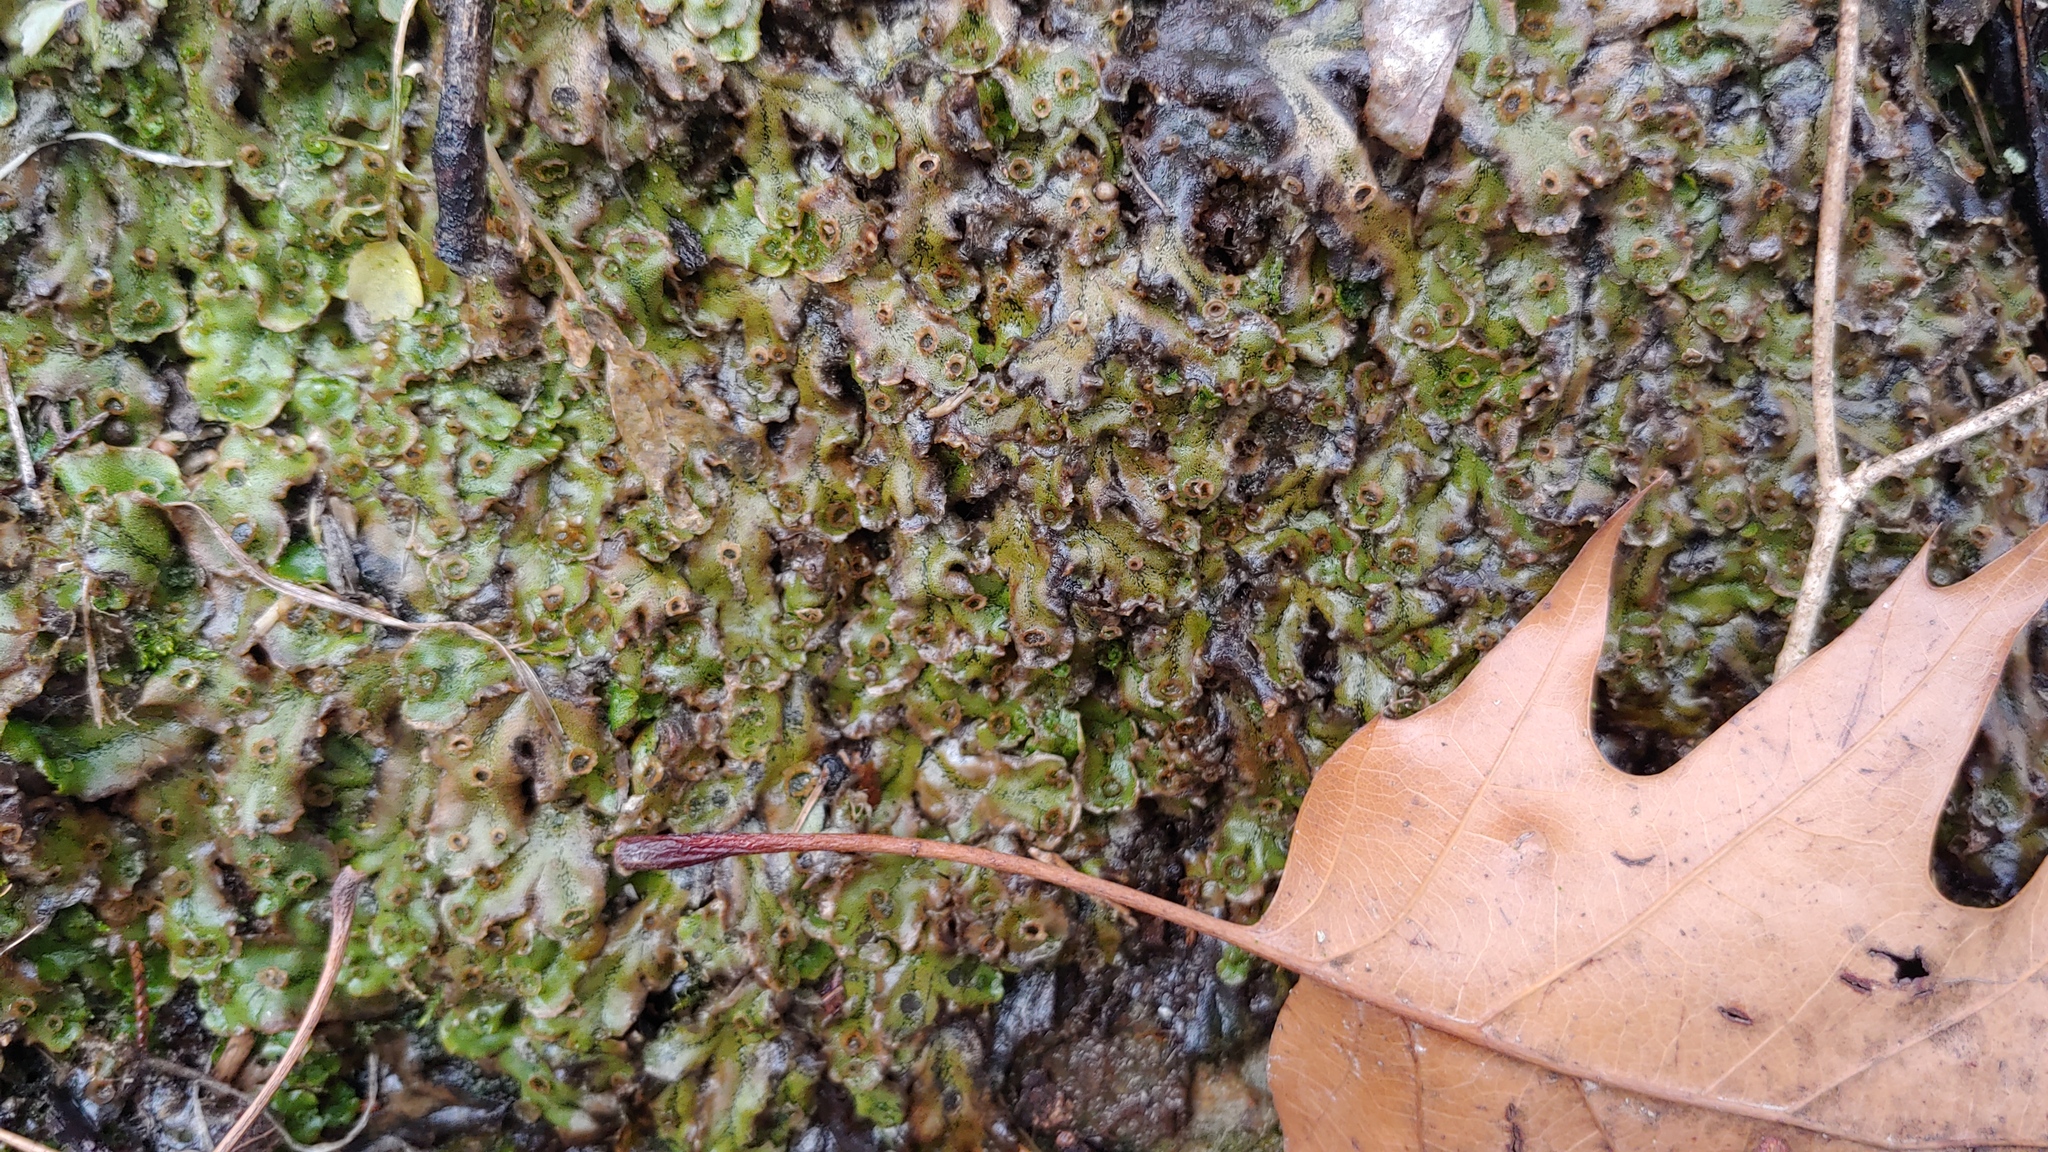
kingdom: Plantae
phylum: Marchantiophyta
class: Marchantiopsida
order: Marchantiales
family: Marchantiaceae
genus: Marchantia
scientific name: Marchantia polymorpha
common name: Common liverwort
